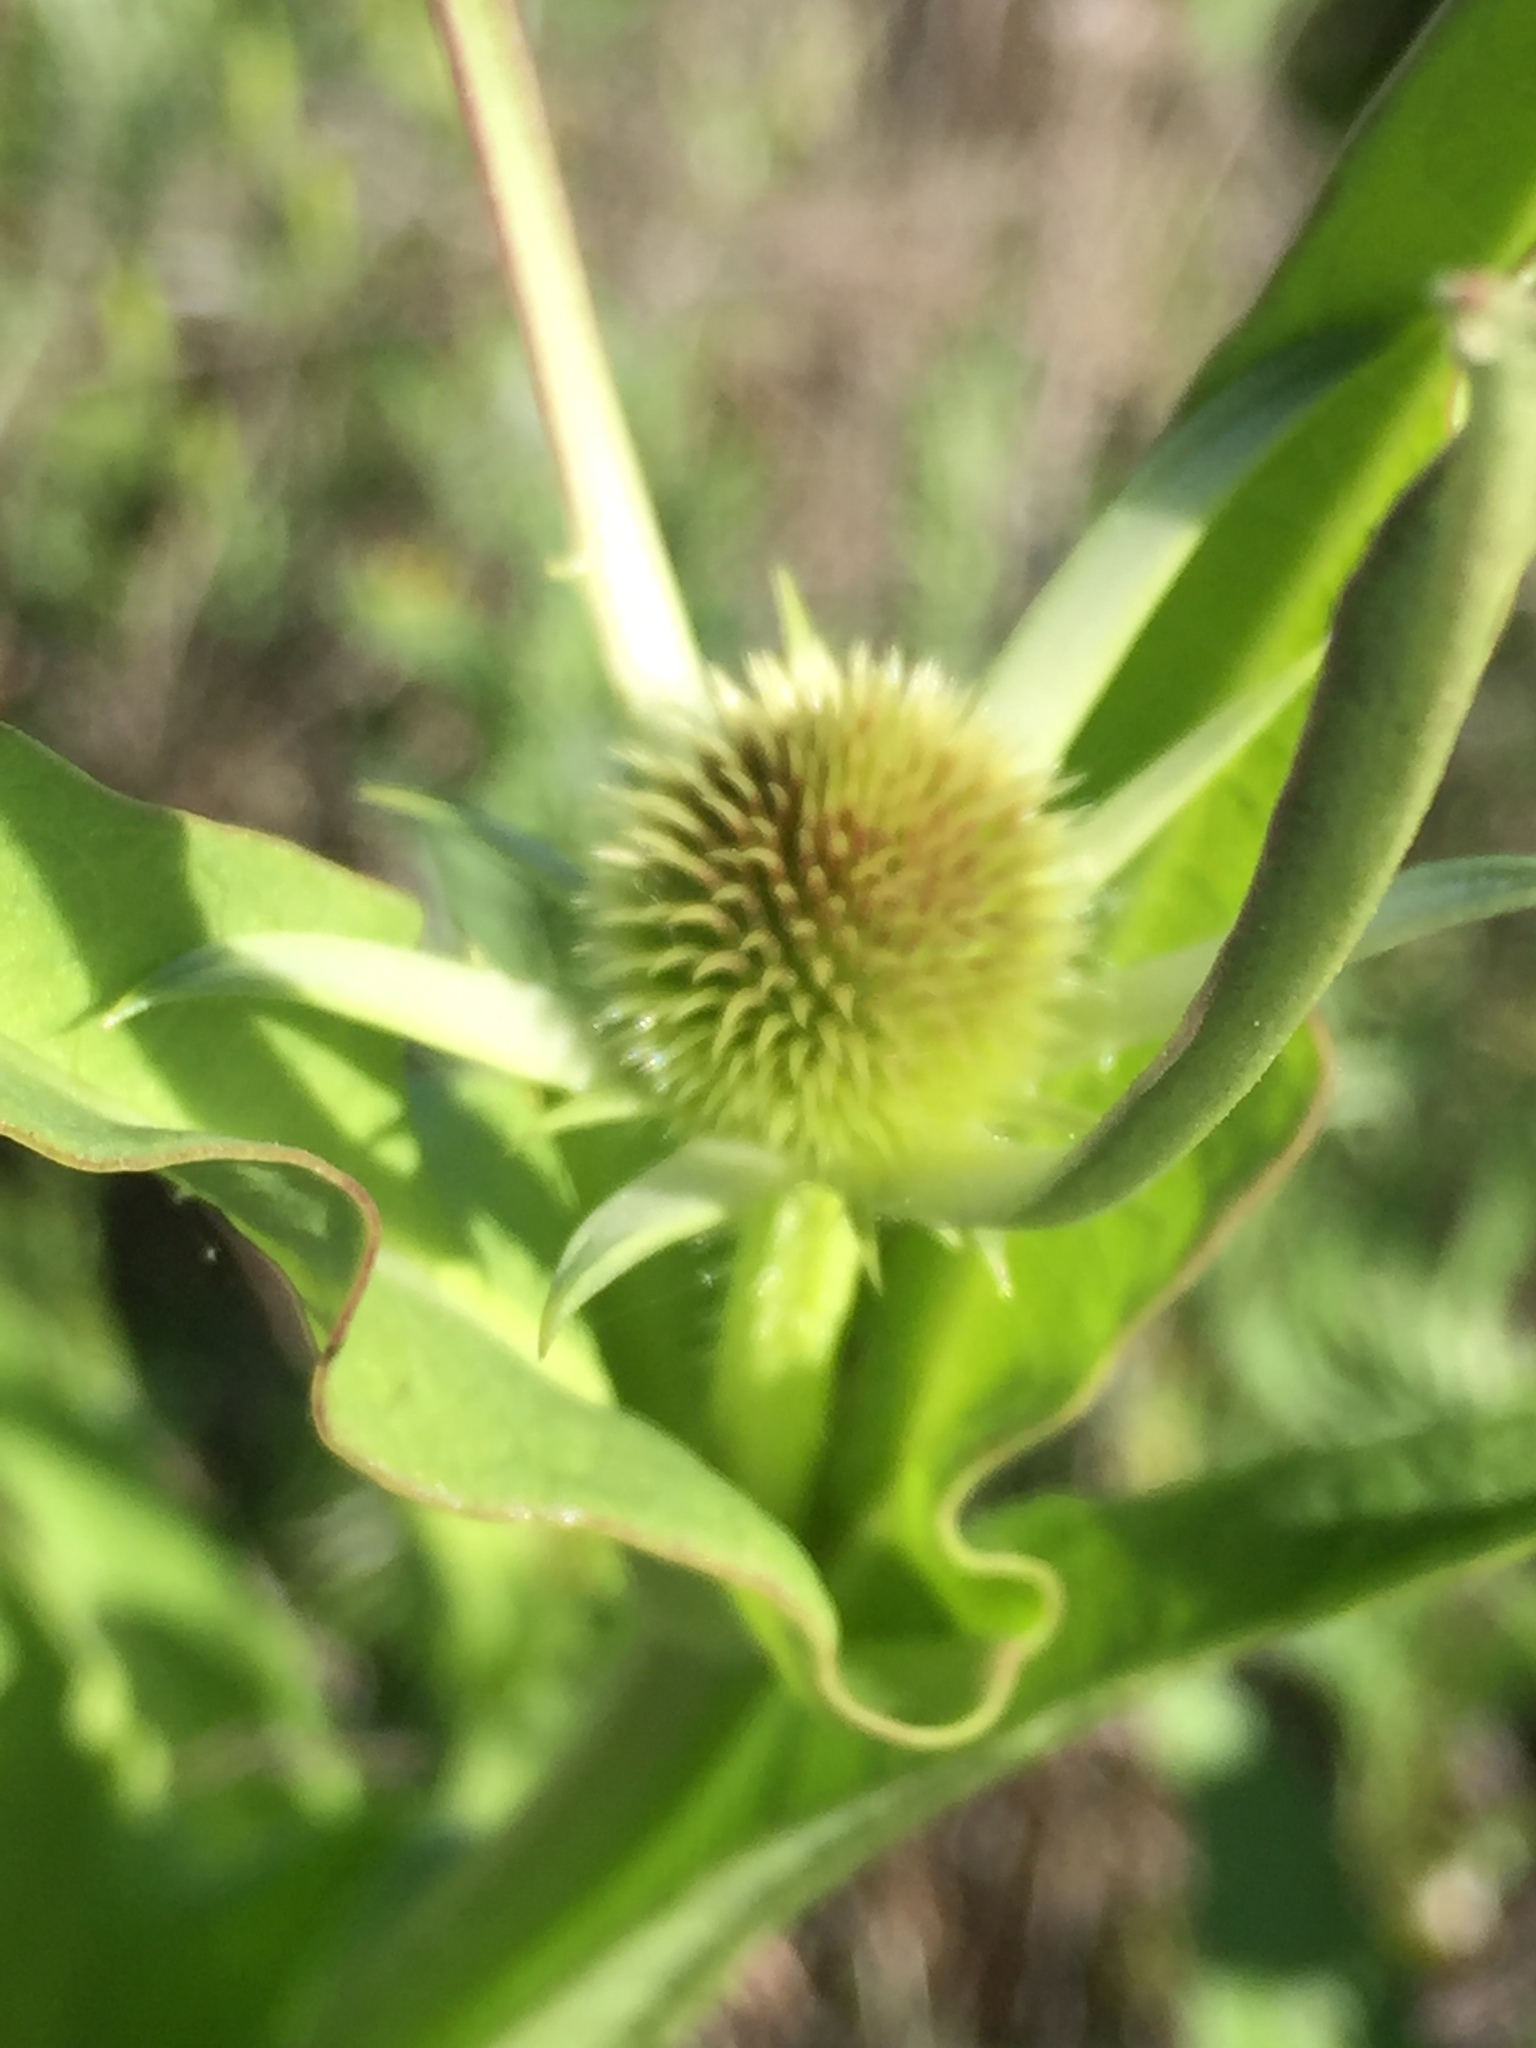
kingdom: Plantae
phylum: Tracheophyta
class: Magnoliopsida
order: Dipsacales
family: Caprifoliaceae
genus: Dipsacus
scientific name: Dipsacus sativus
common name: Fuller's teasel
